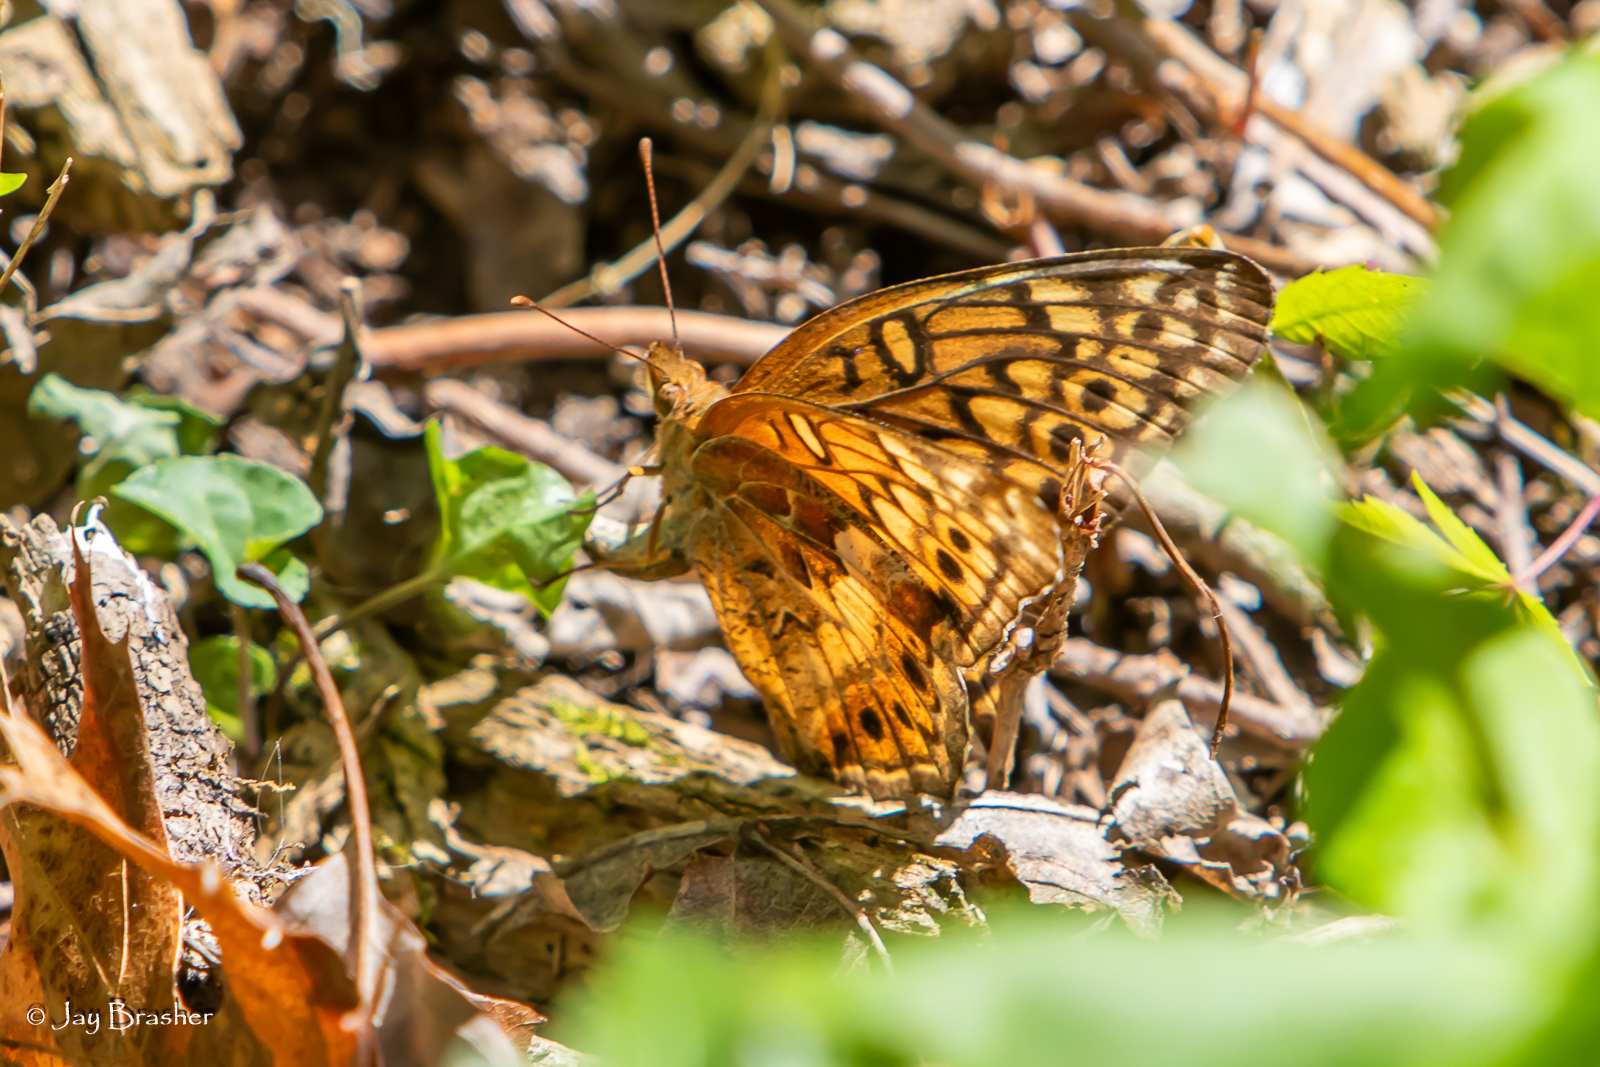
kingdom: Animalia
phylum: Arthropoda
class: Insecta
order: Lepidoptera
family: Nymphalidae
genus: Euptoieta
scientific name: Euptoieta claudia
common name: Variegated fritillary
